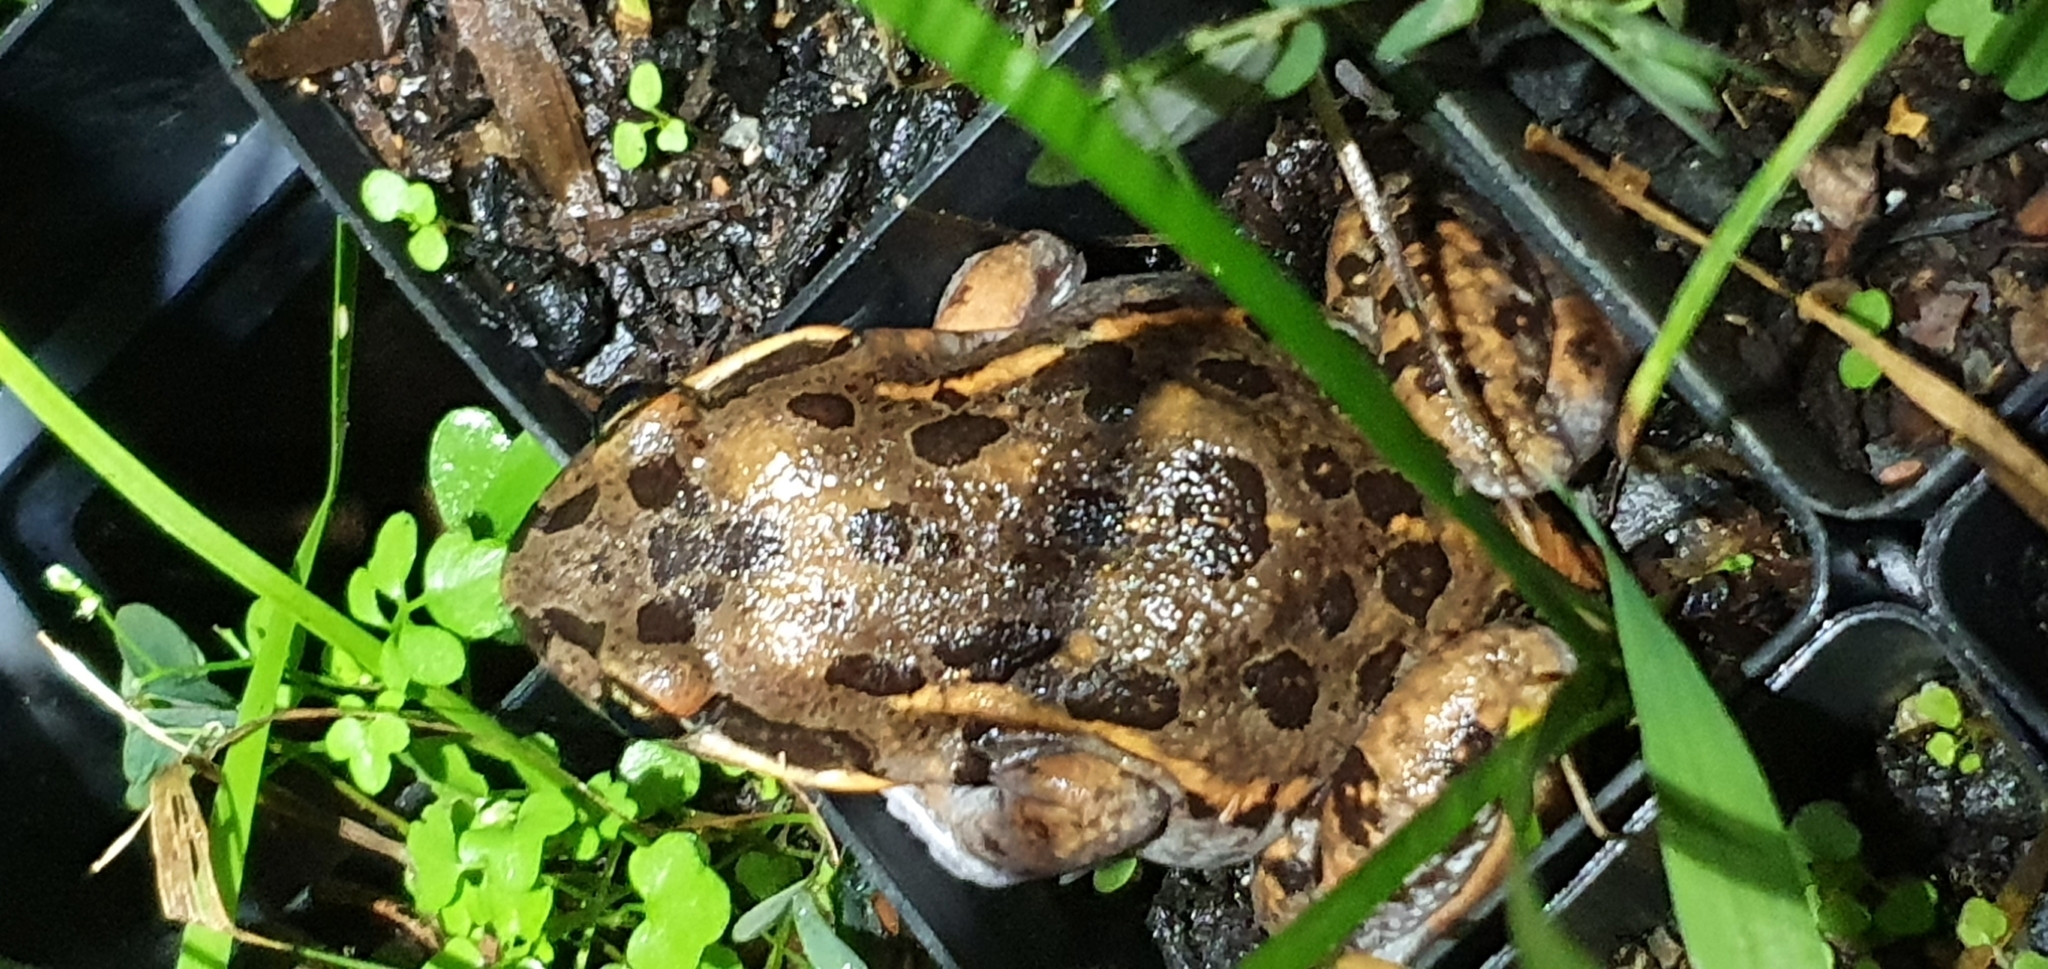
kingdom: Animalia
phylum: Chordata
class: Amphibia
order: Anura
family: Limnodynastidae
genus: Limnodynastes
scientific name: Limnodynastes salmini
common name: Salmon-striped frog
